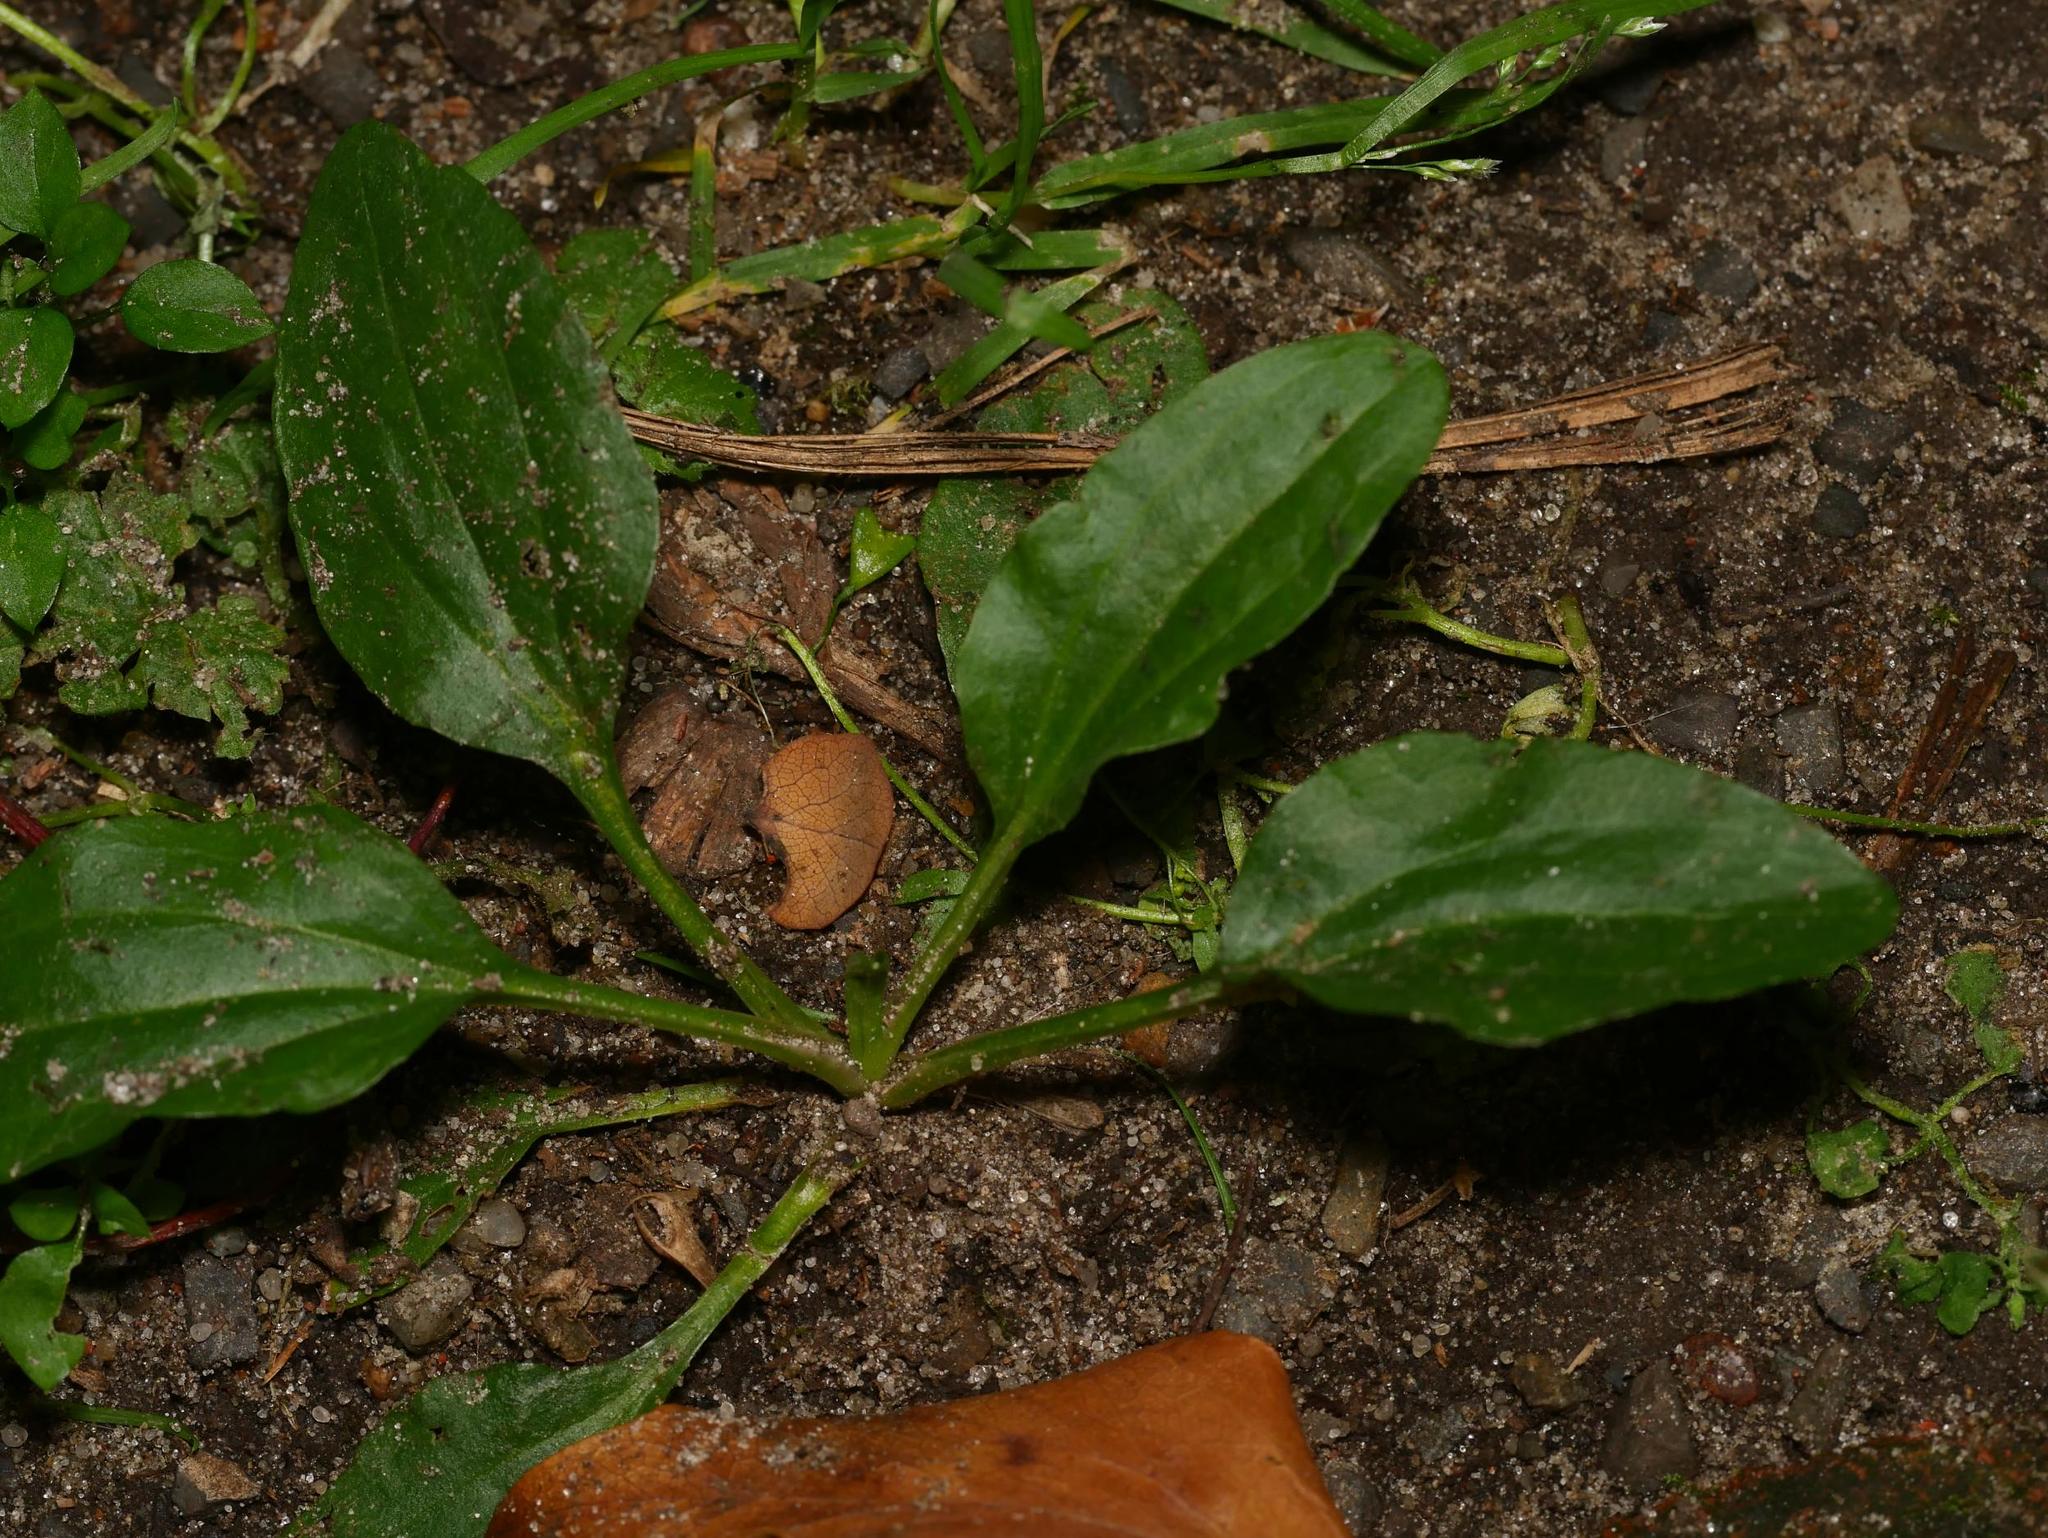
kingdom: Plantae
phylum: Tracheophyta
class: Magnoliopsida
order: Lamiales
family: Plantaginaceae
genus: Plantago
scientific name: Plantago major
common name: Common plantain
